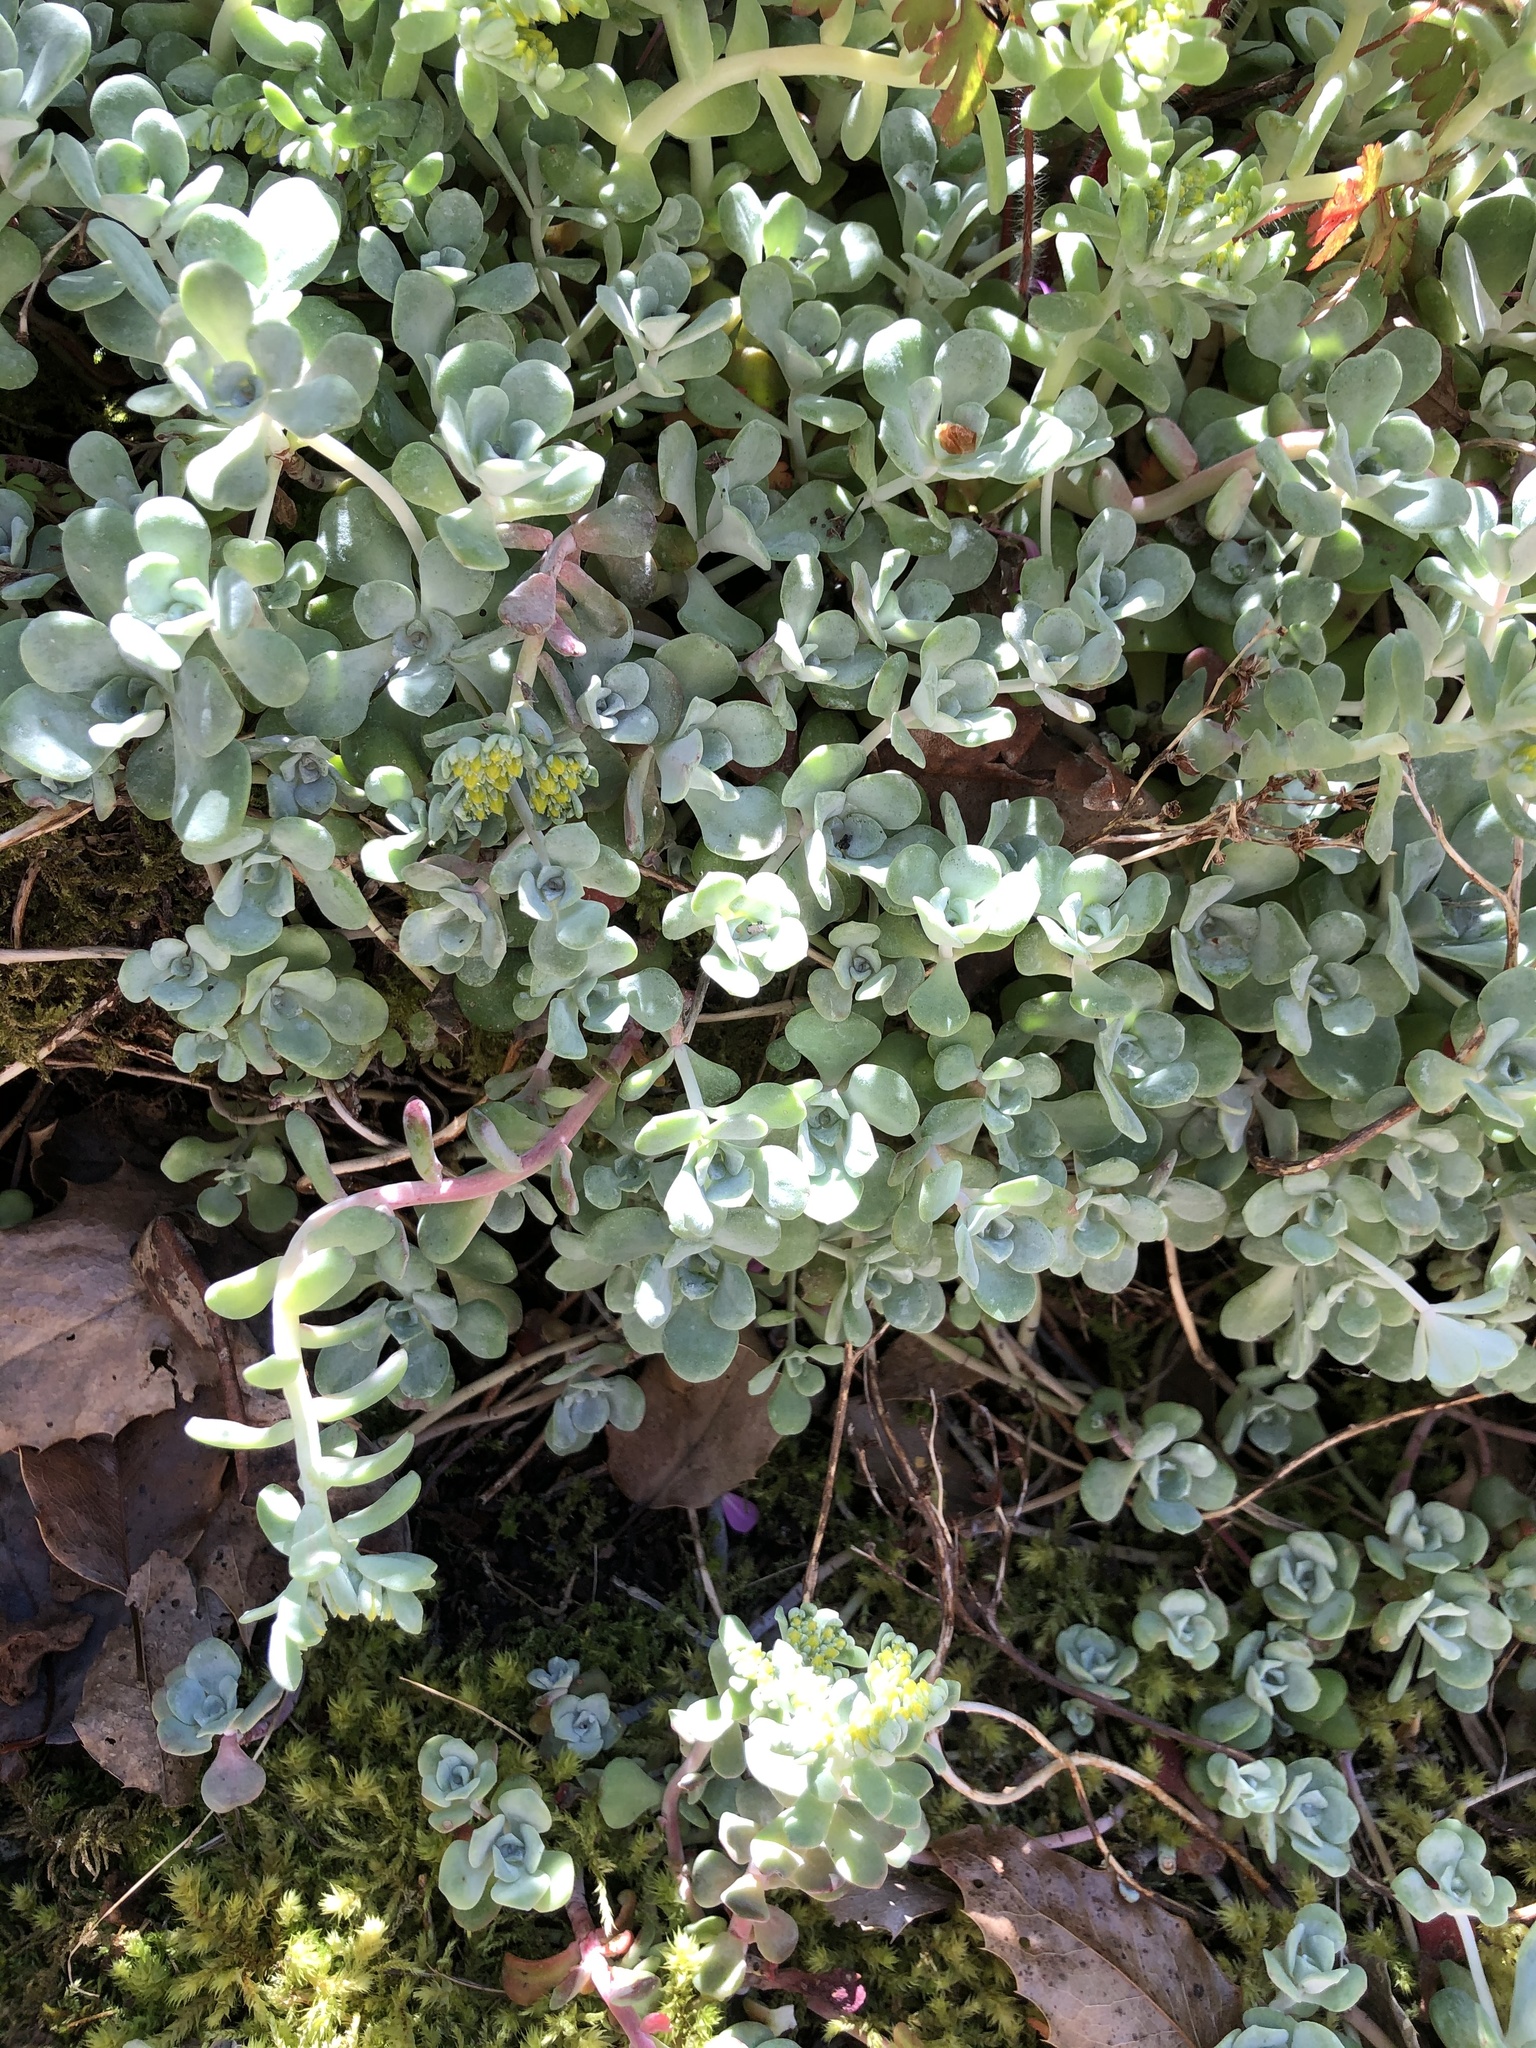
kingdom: Plantae
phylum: Tracheophyta
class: Magnoliopsida
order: Saxifragales
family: Crassulaceae
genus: Sedum
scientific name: Sedum spathulifolium
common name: Colorado stonecrop
